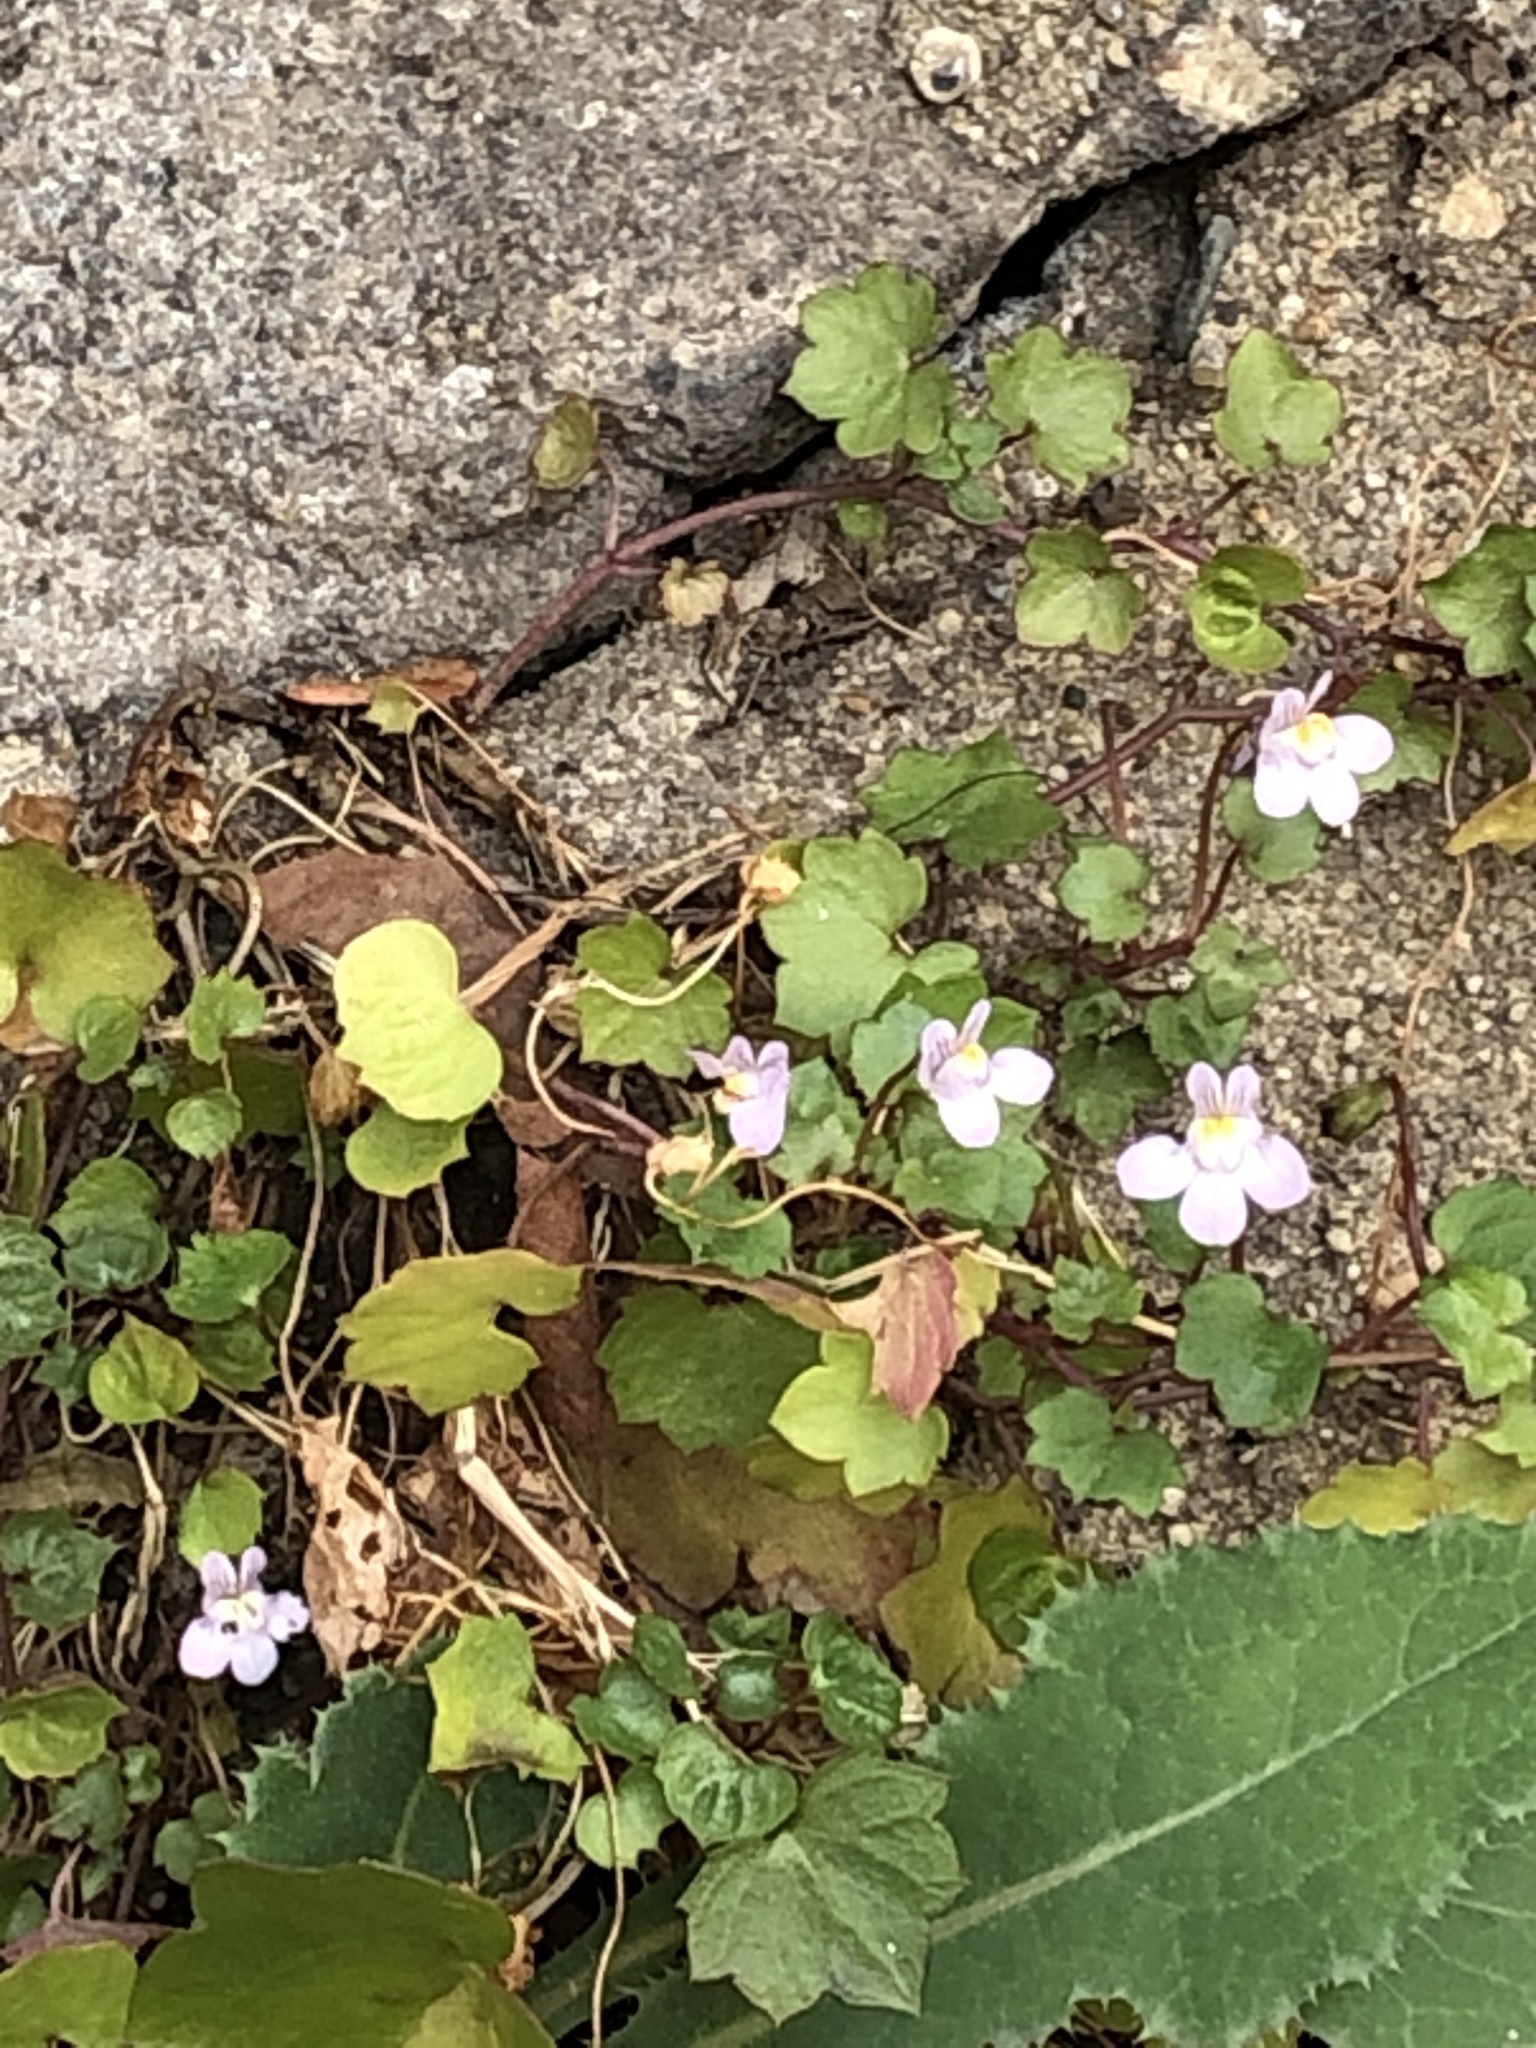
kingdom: Plantae
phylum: Tracheophyta
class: Magnoliopsida
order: Lamiales
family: Plantaginaceae
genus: Cymbalaria
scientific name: Cymbalaria muralis
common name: Ivy-leaved toadflax
